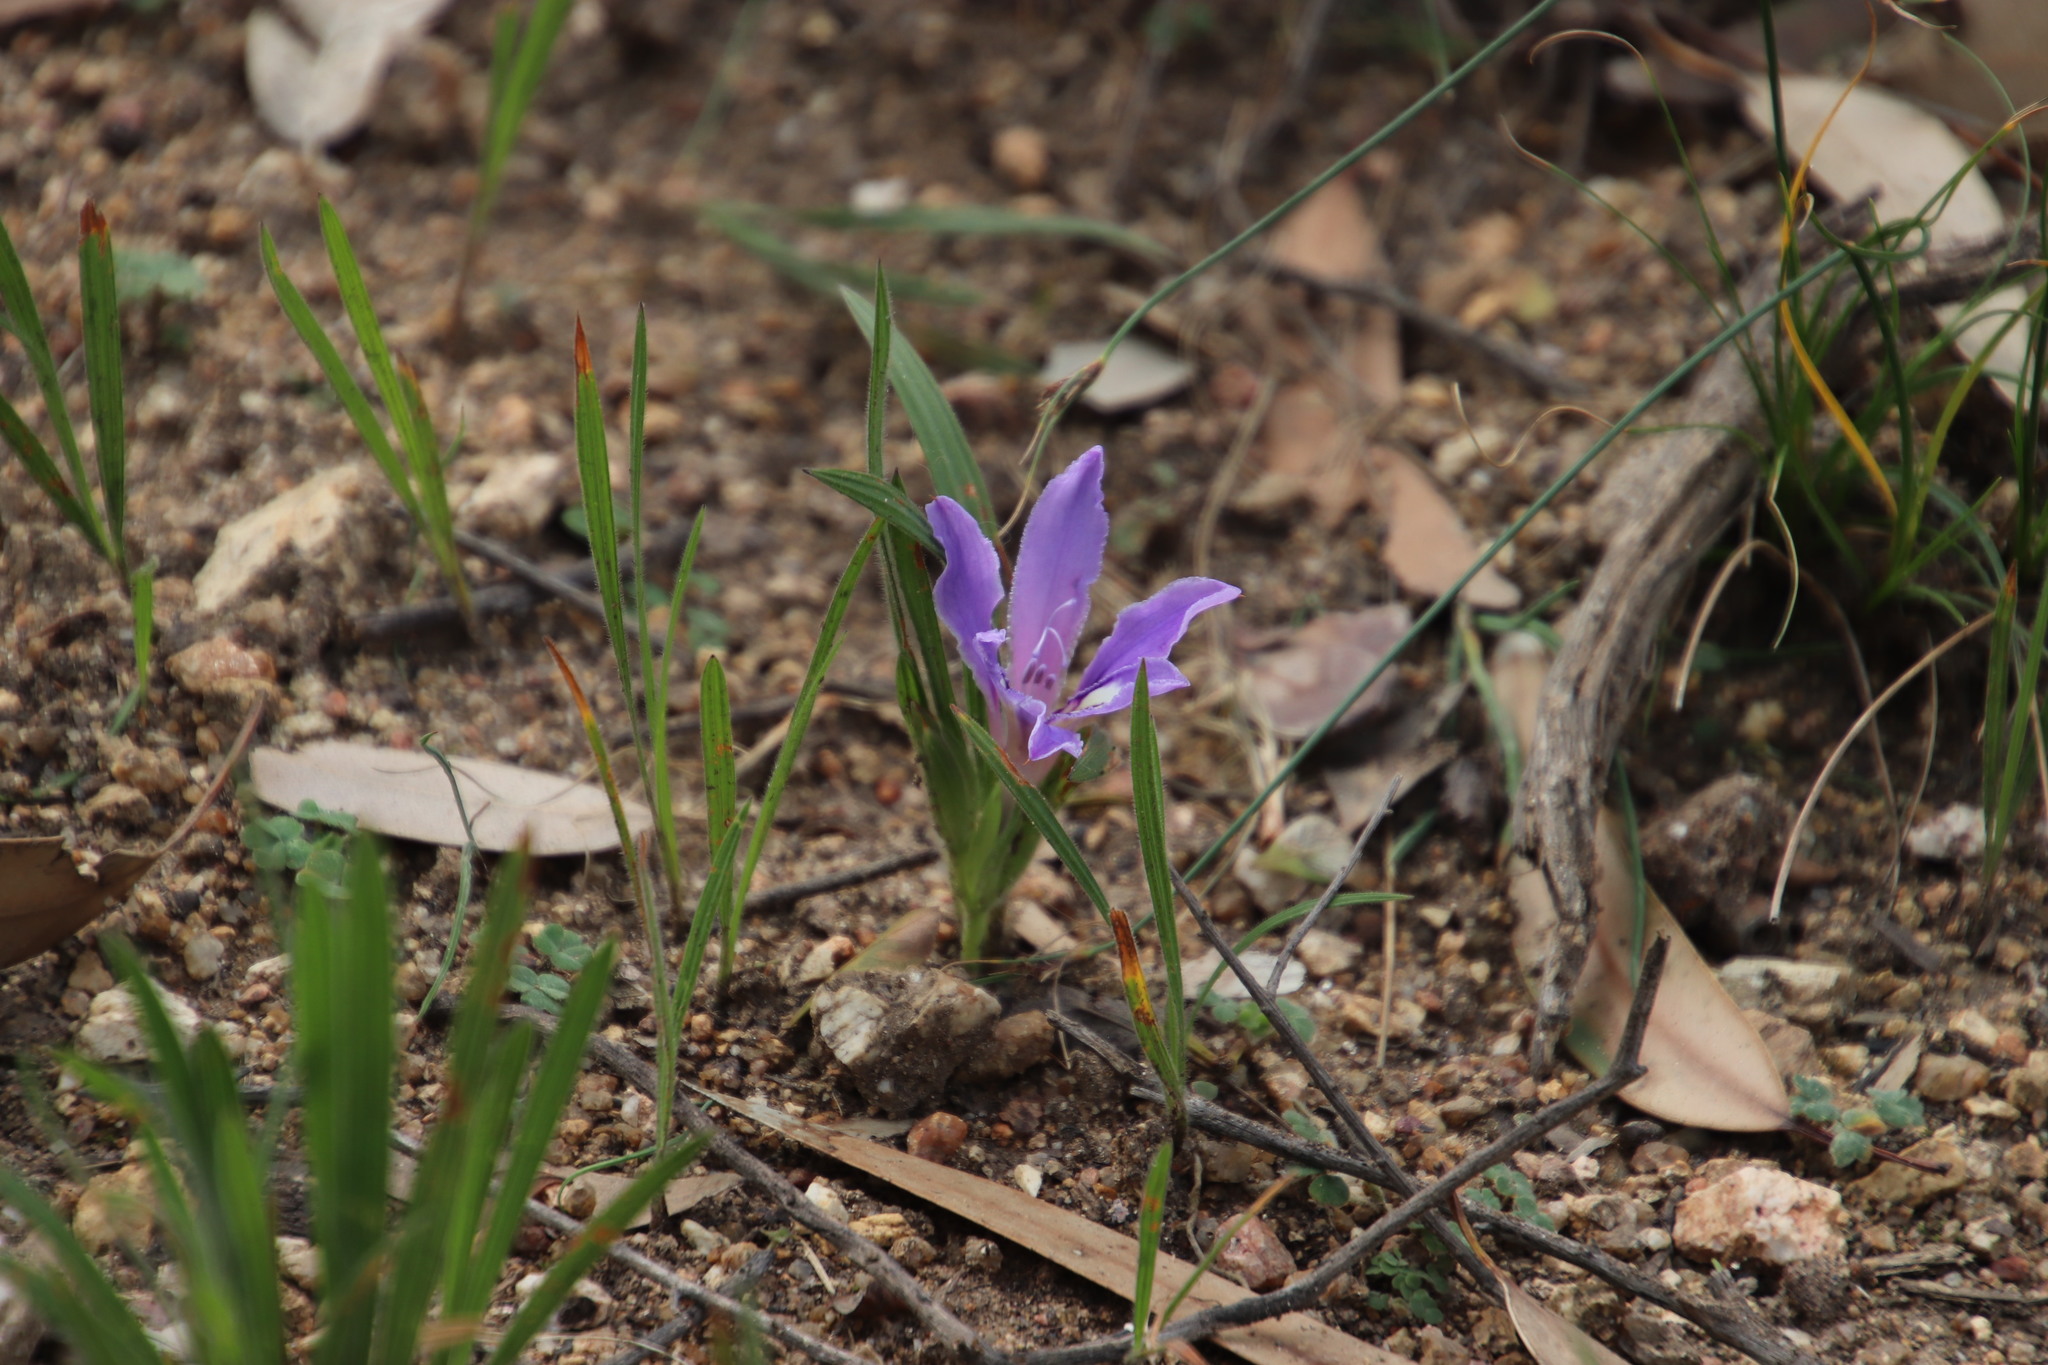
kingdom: Plantae
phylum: Tracheophyta
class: Liliopsida
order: Asparagales
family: Iridaceae
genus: Babiana
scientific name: Babiana ambigua
